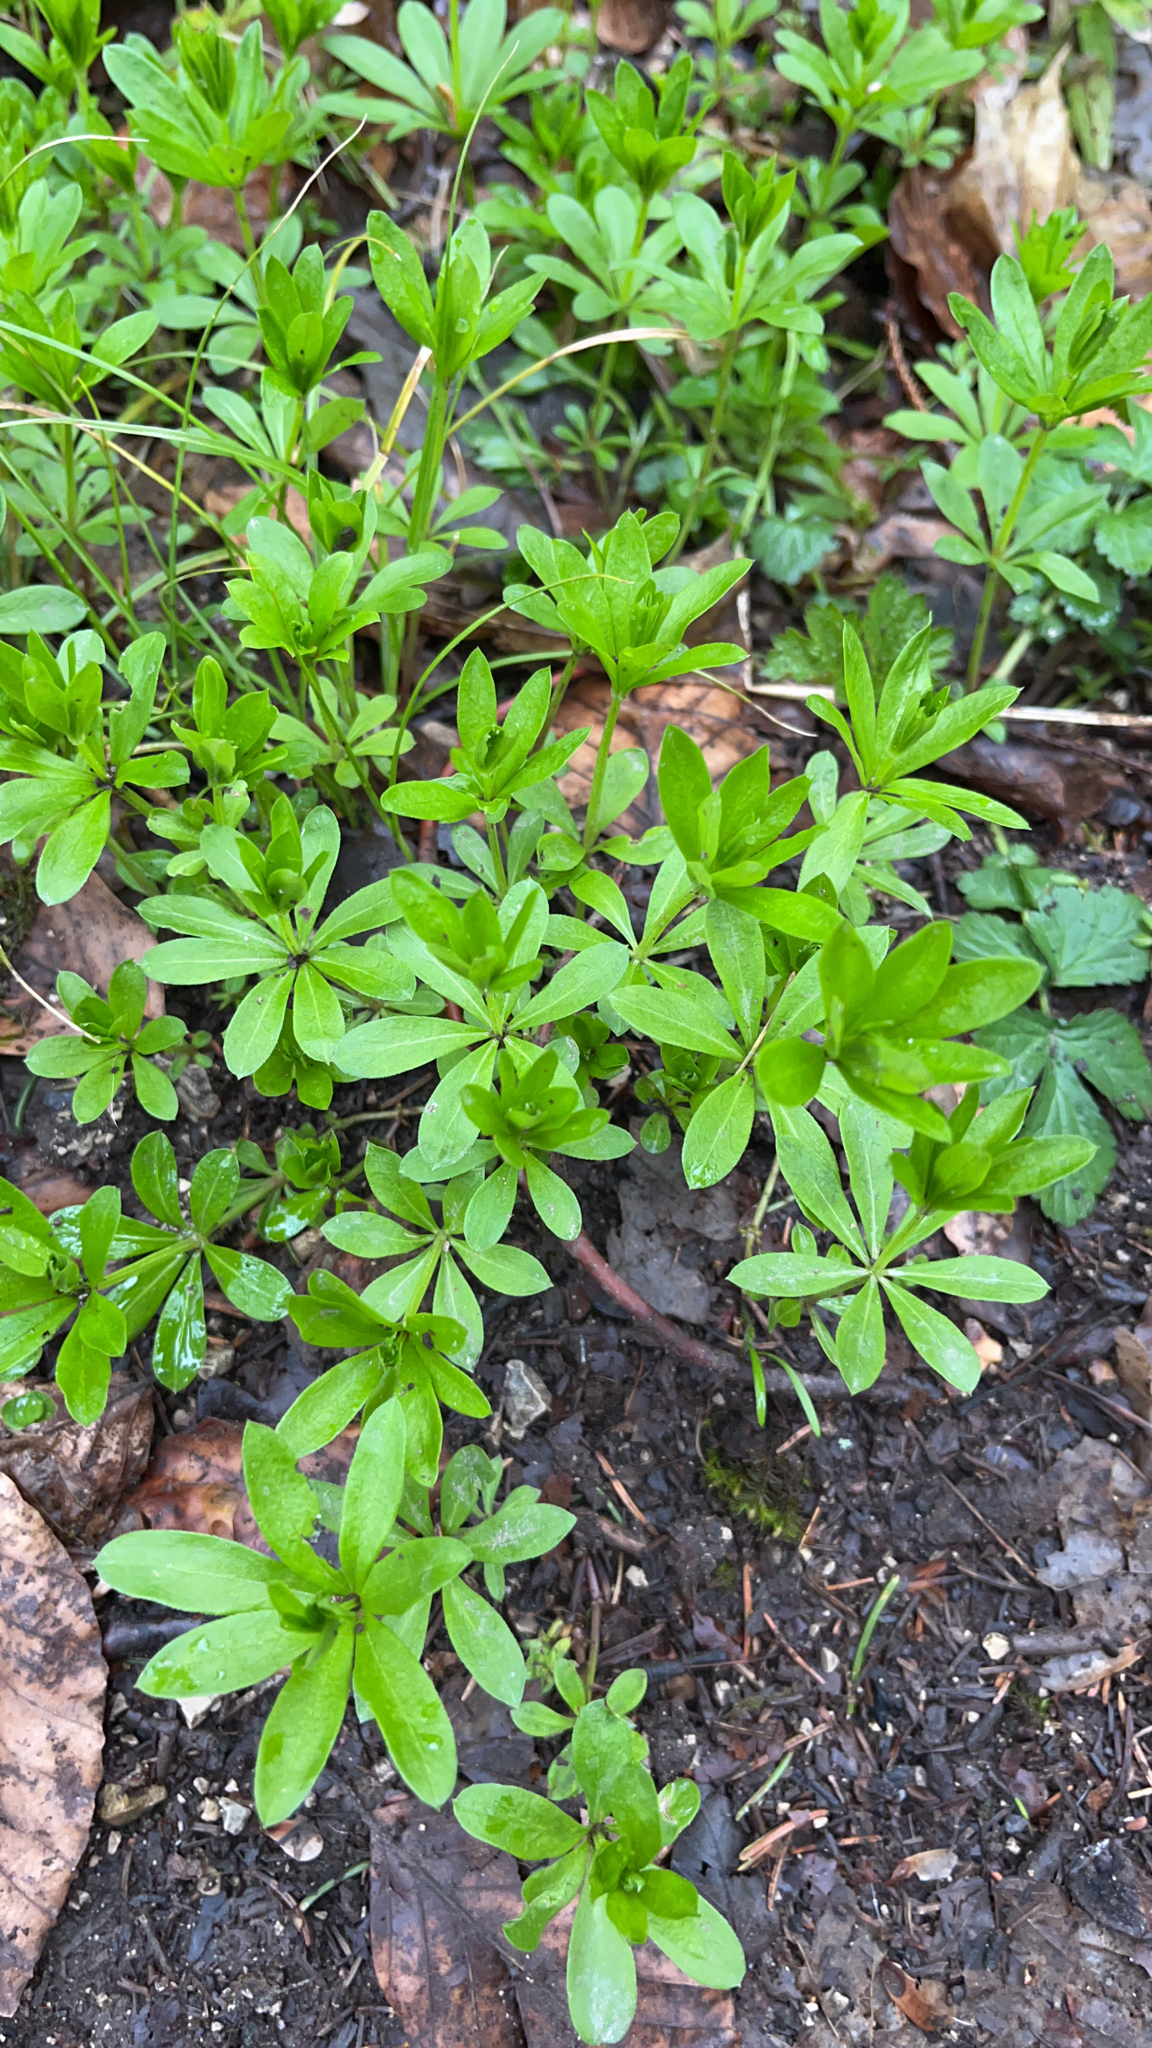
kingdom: Plantae
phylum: Tracheophyta
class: Magnoliopsida
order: Gentianales
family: Rubiaceae
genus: Galium
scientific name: Galium odoratum
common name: Sweet woodruff
